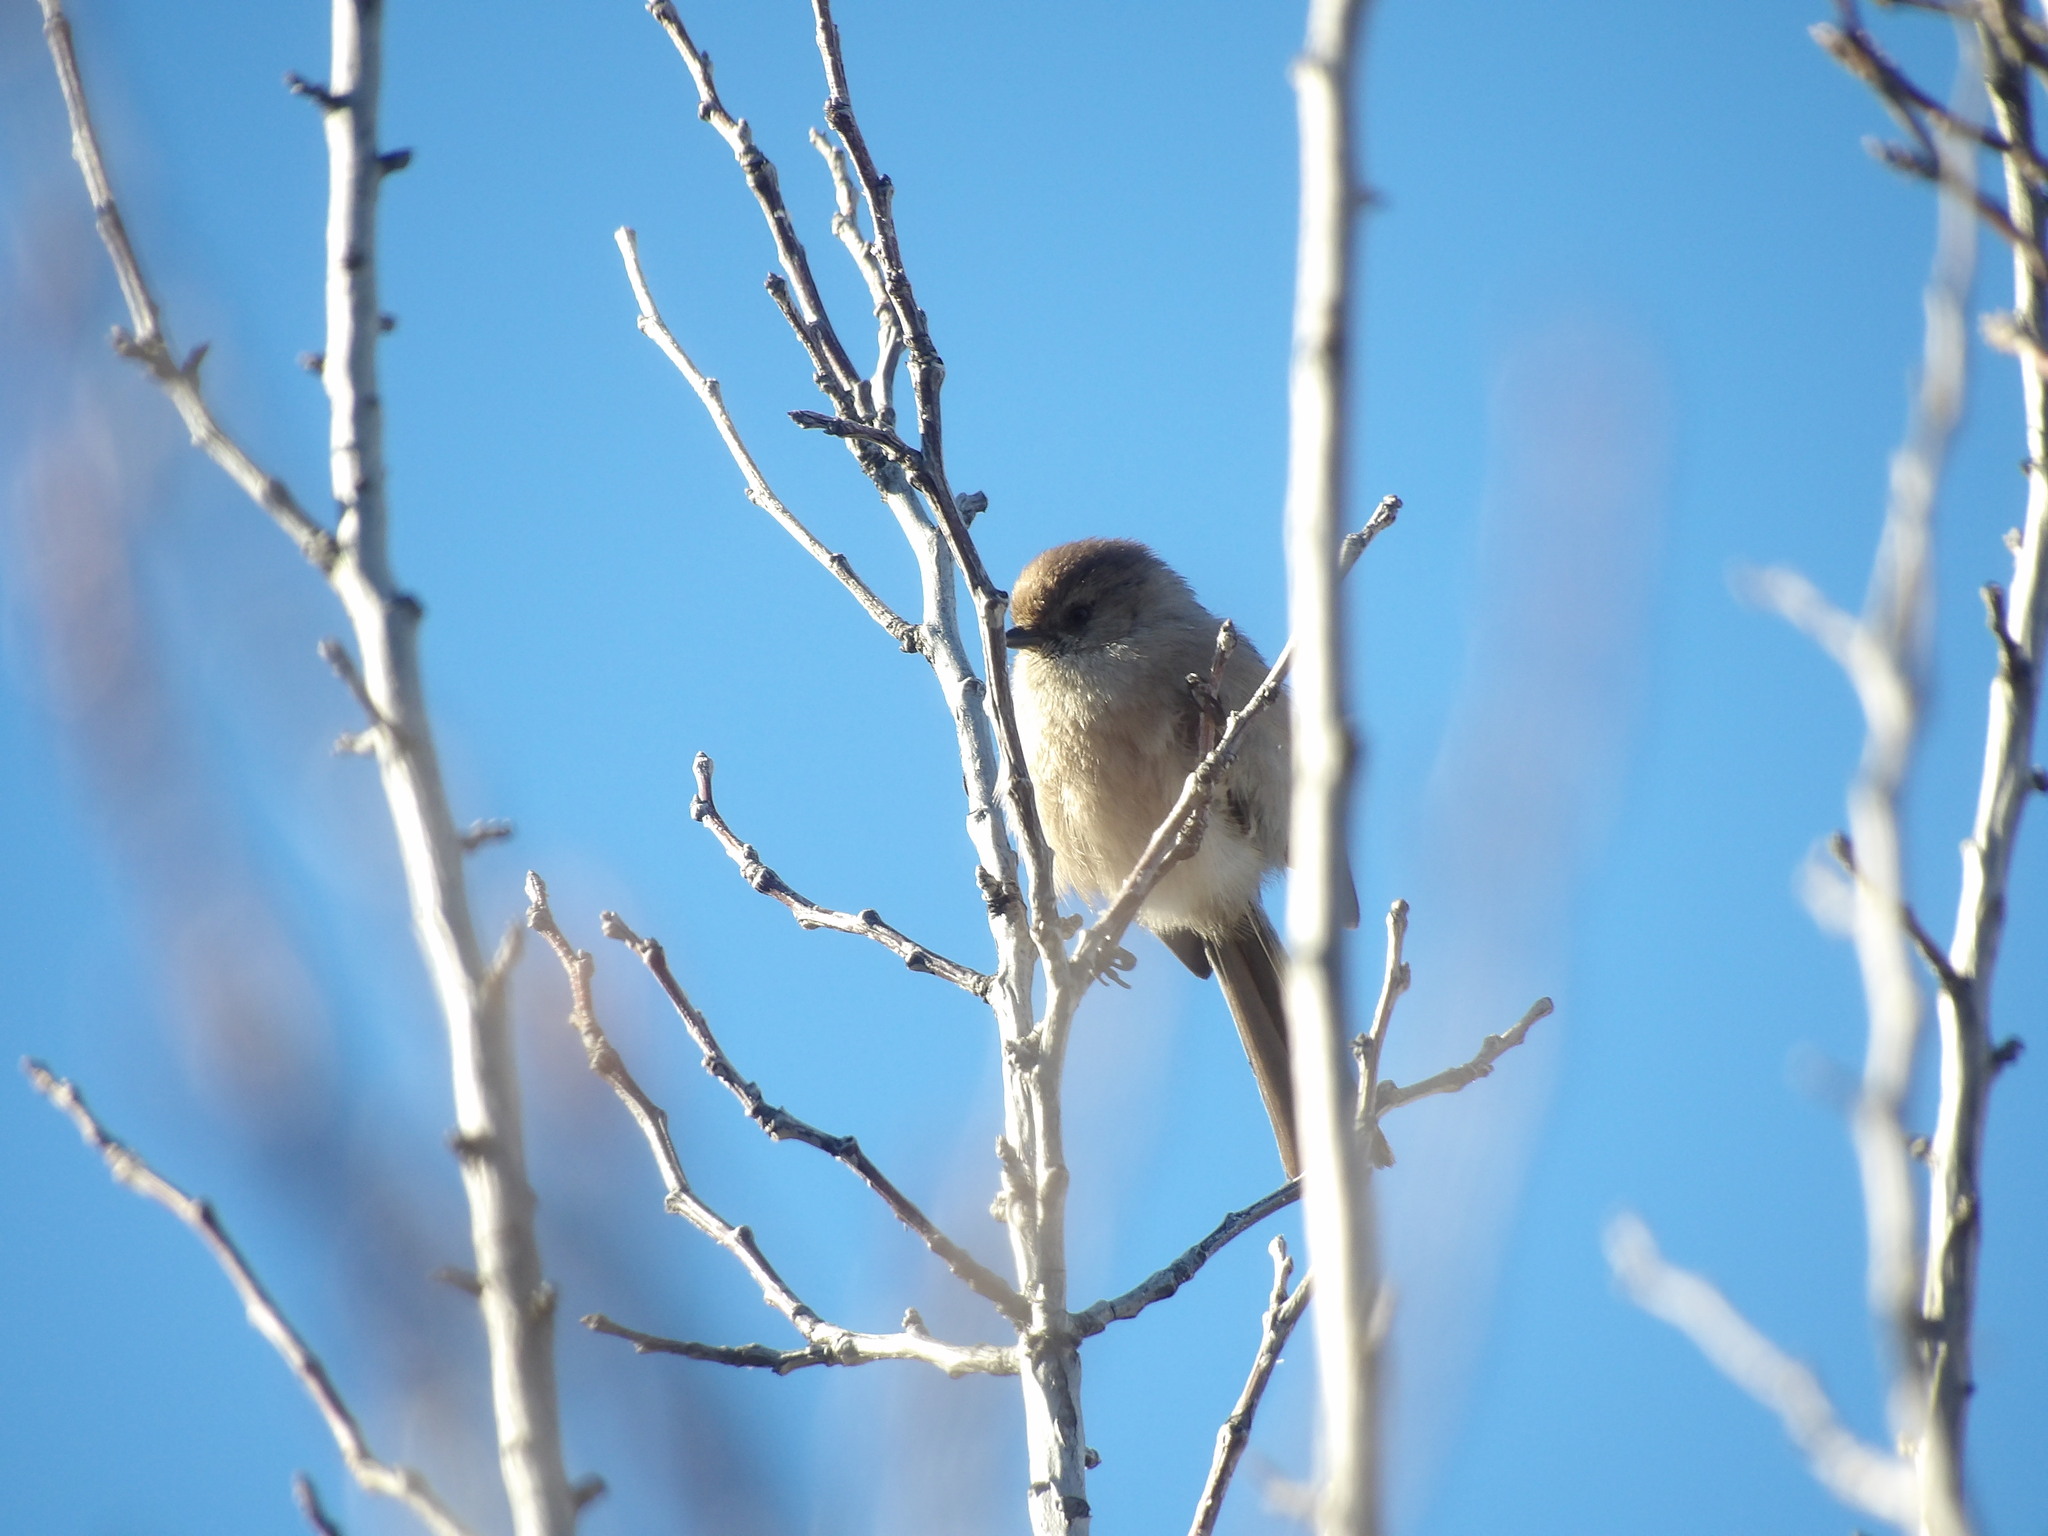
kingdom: Animalia
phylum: Chordata
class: Aves
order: Passeriformes
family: Aegithalidae
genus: Psaltriparus
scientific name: Psaltriparus minimus
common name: American bushtit
